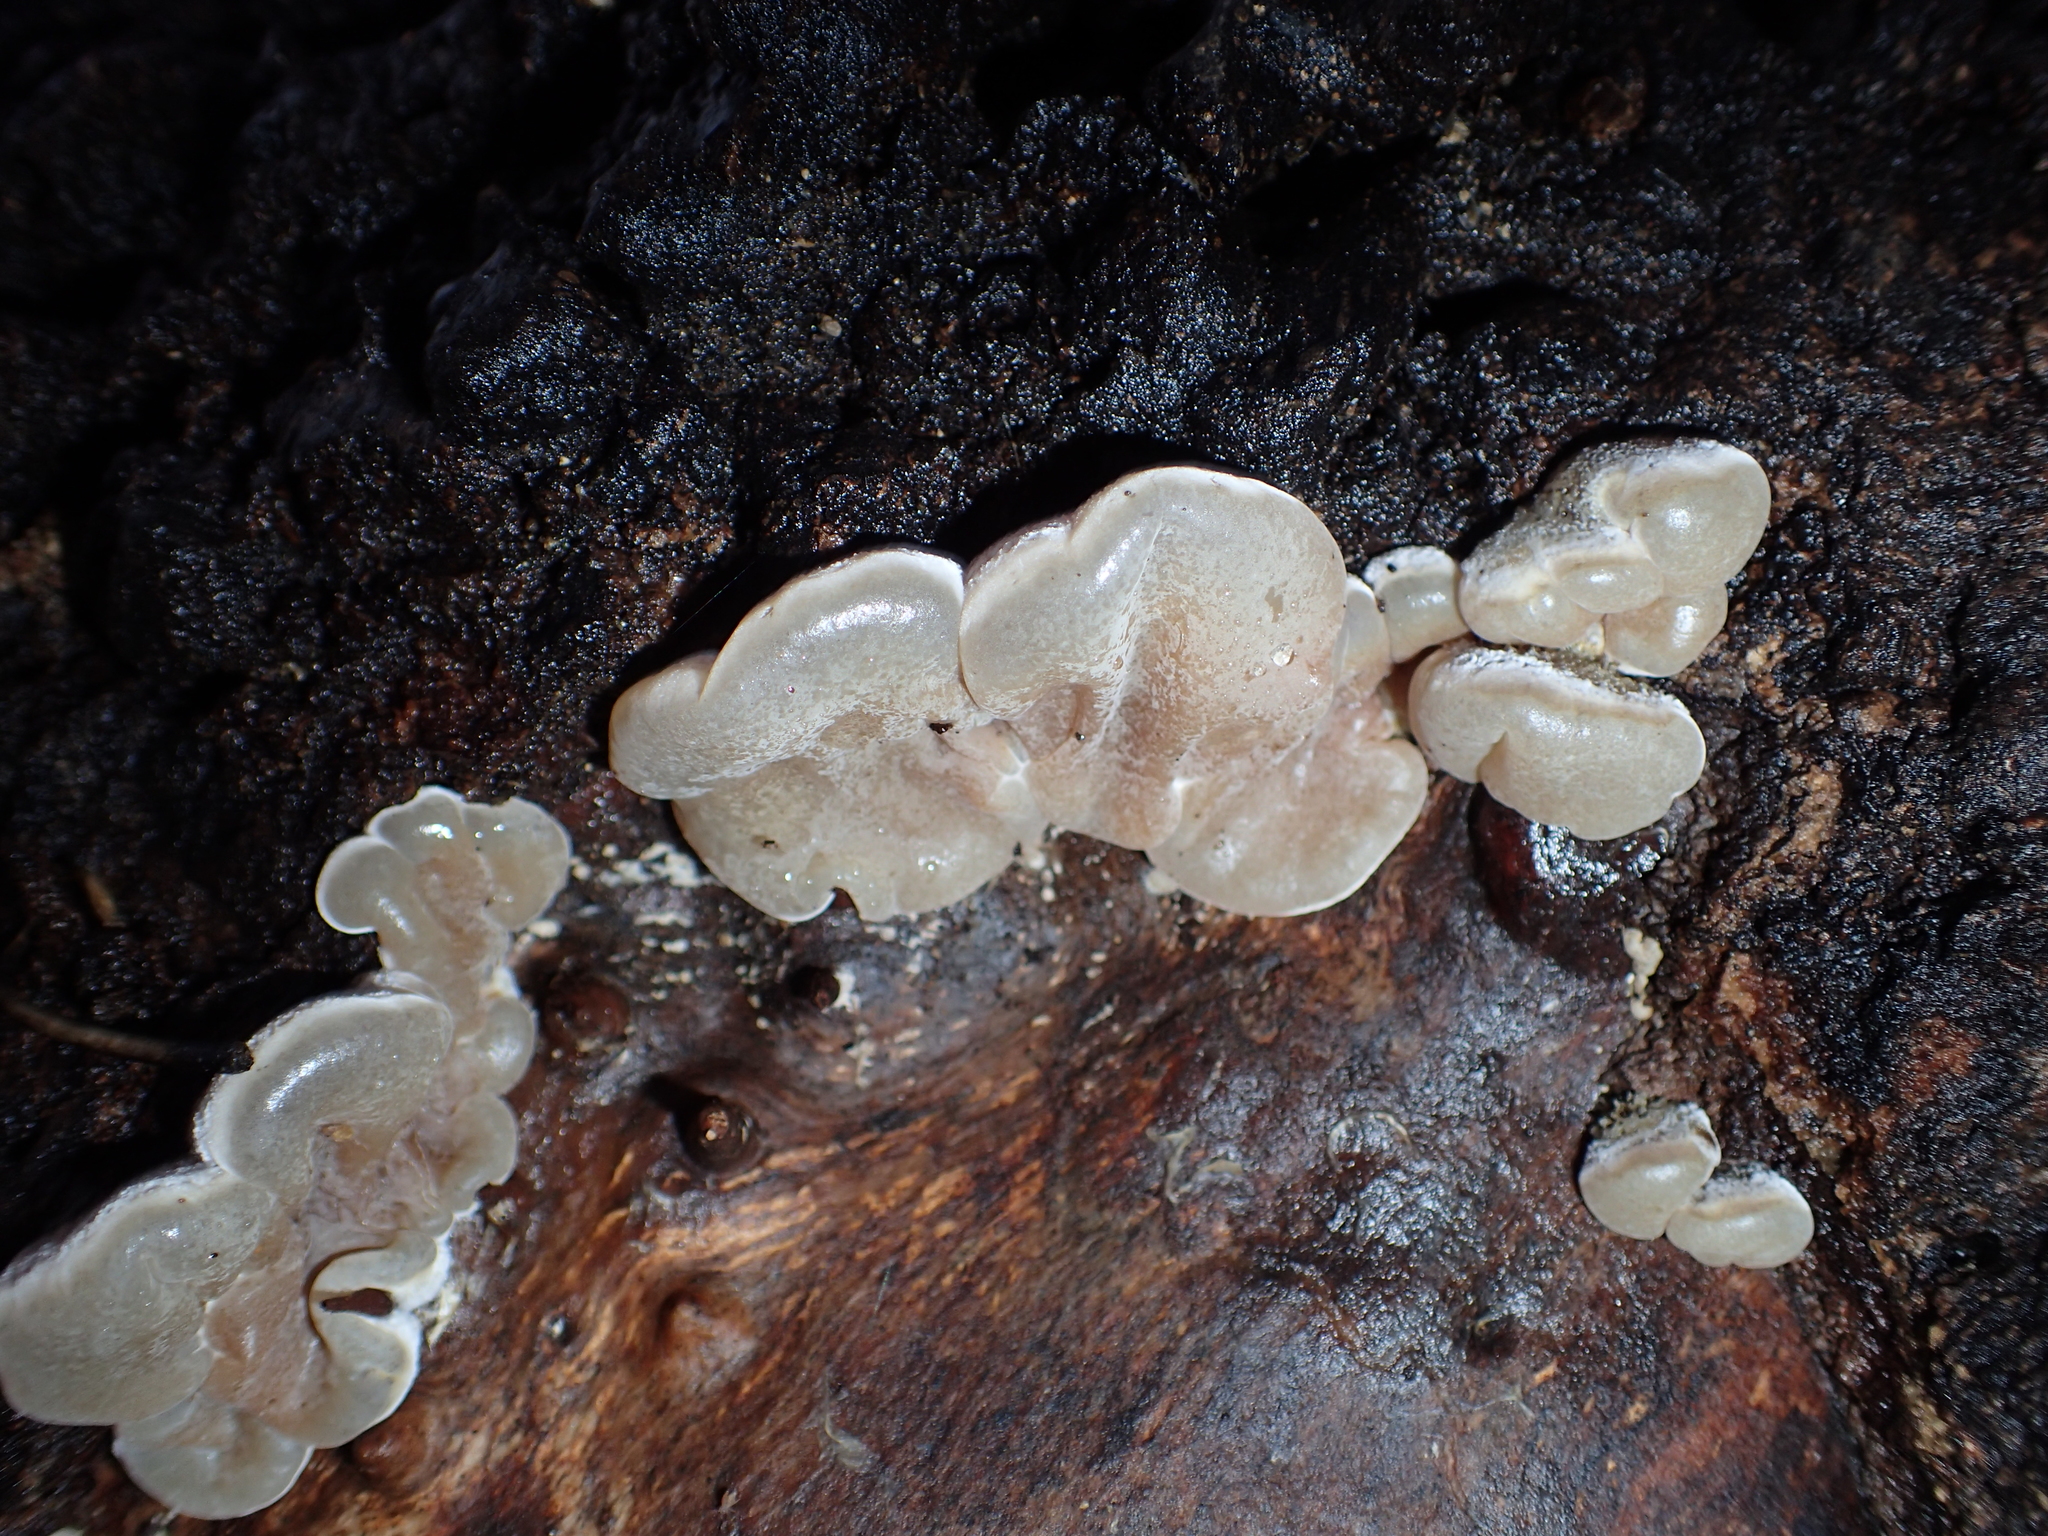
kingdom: Fungi
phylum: Basidiomycota
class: Agaricomycetes
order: Auriculariales
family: Auriculariaceae
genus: Auricularia
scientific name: Auricularia mesenterica
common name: Tripe fungus
